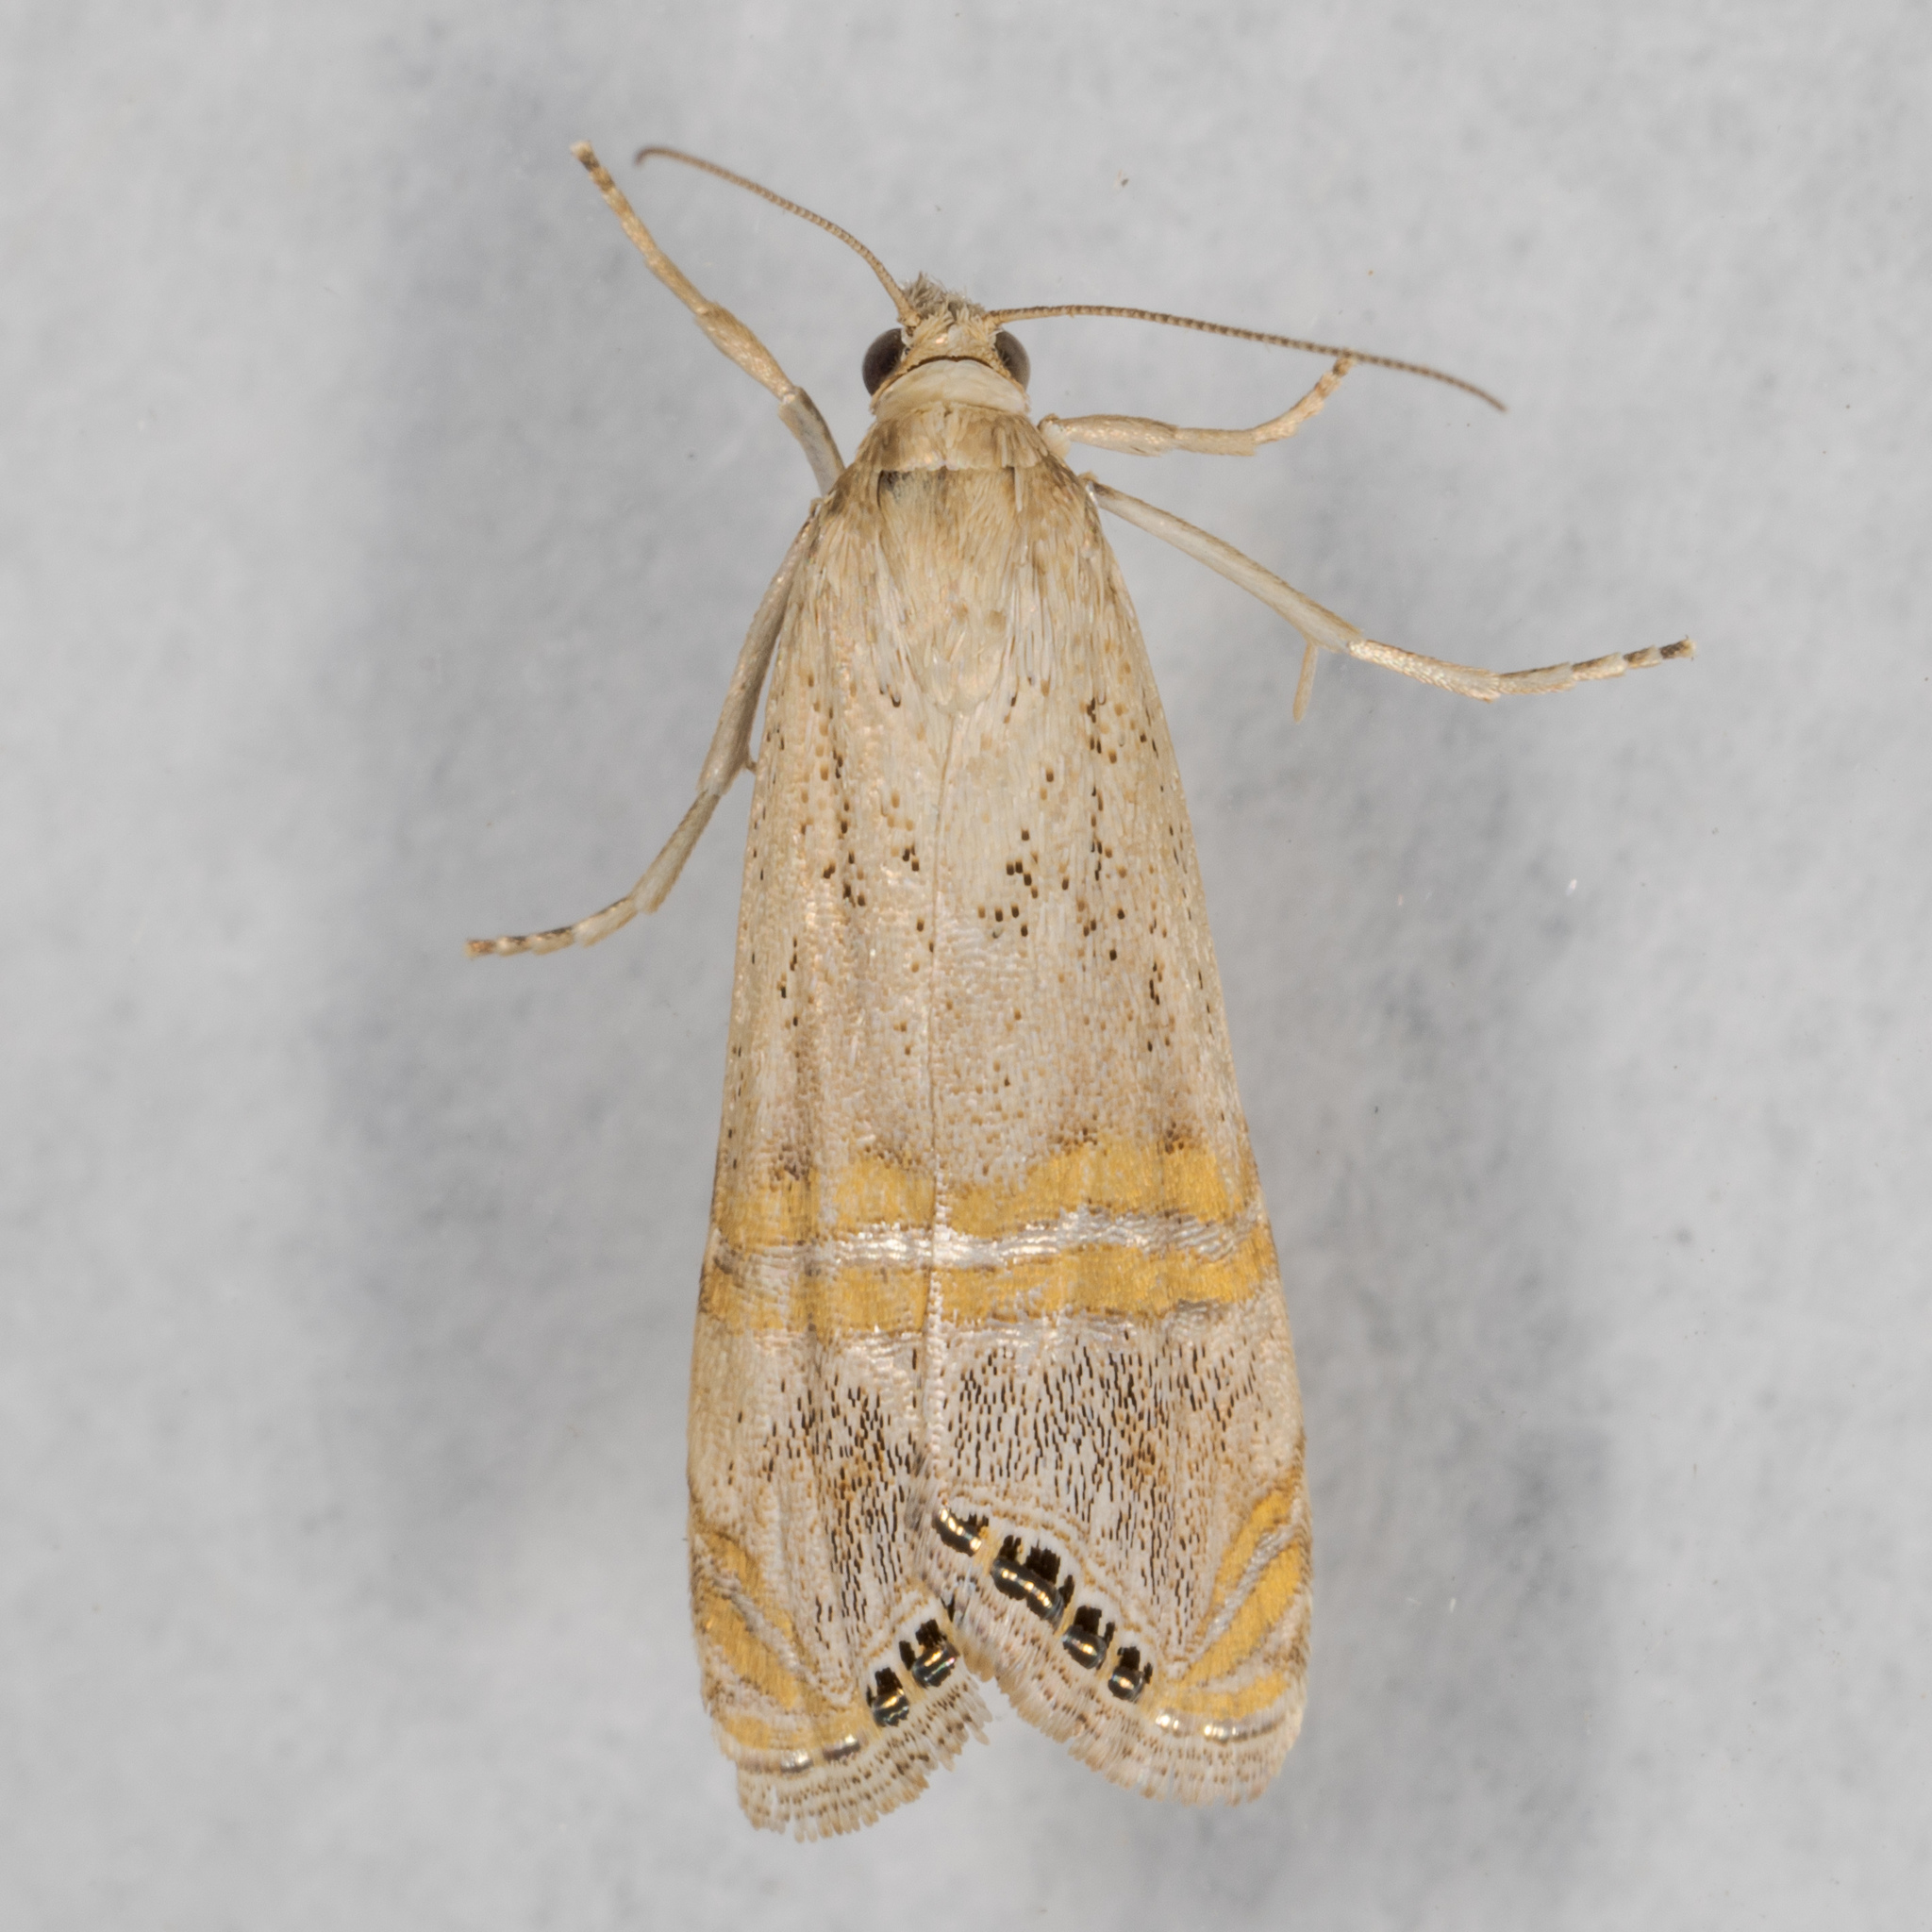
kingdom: Animalia
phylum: Arthropoda
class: Insecta
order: Lepidoptera
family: Crambidae
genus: Euchromius
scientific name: Euchromius ocellea
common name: Necklace veneer moth
